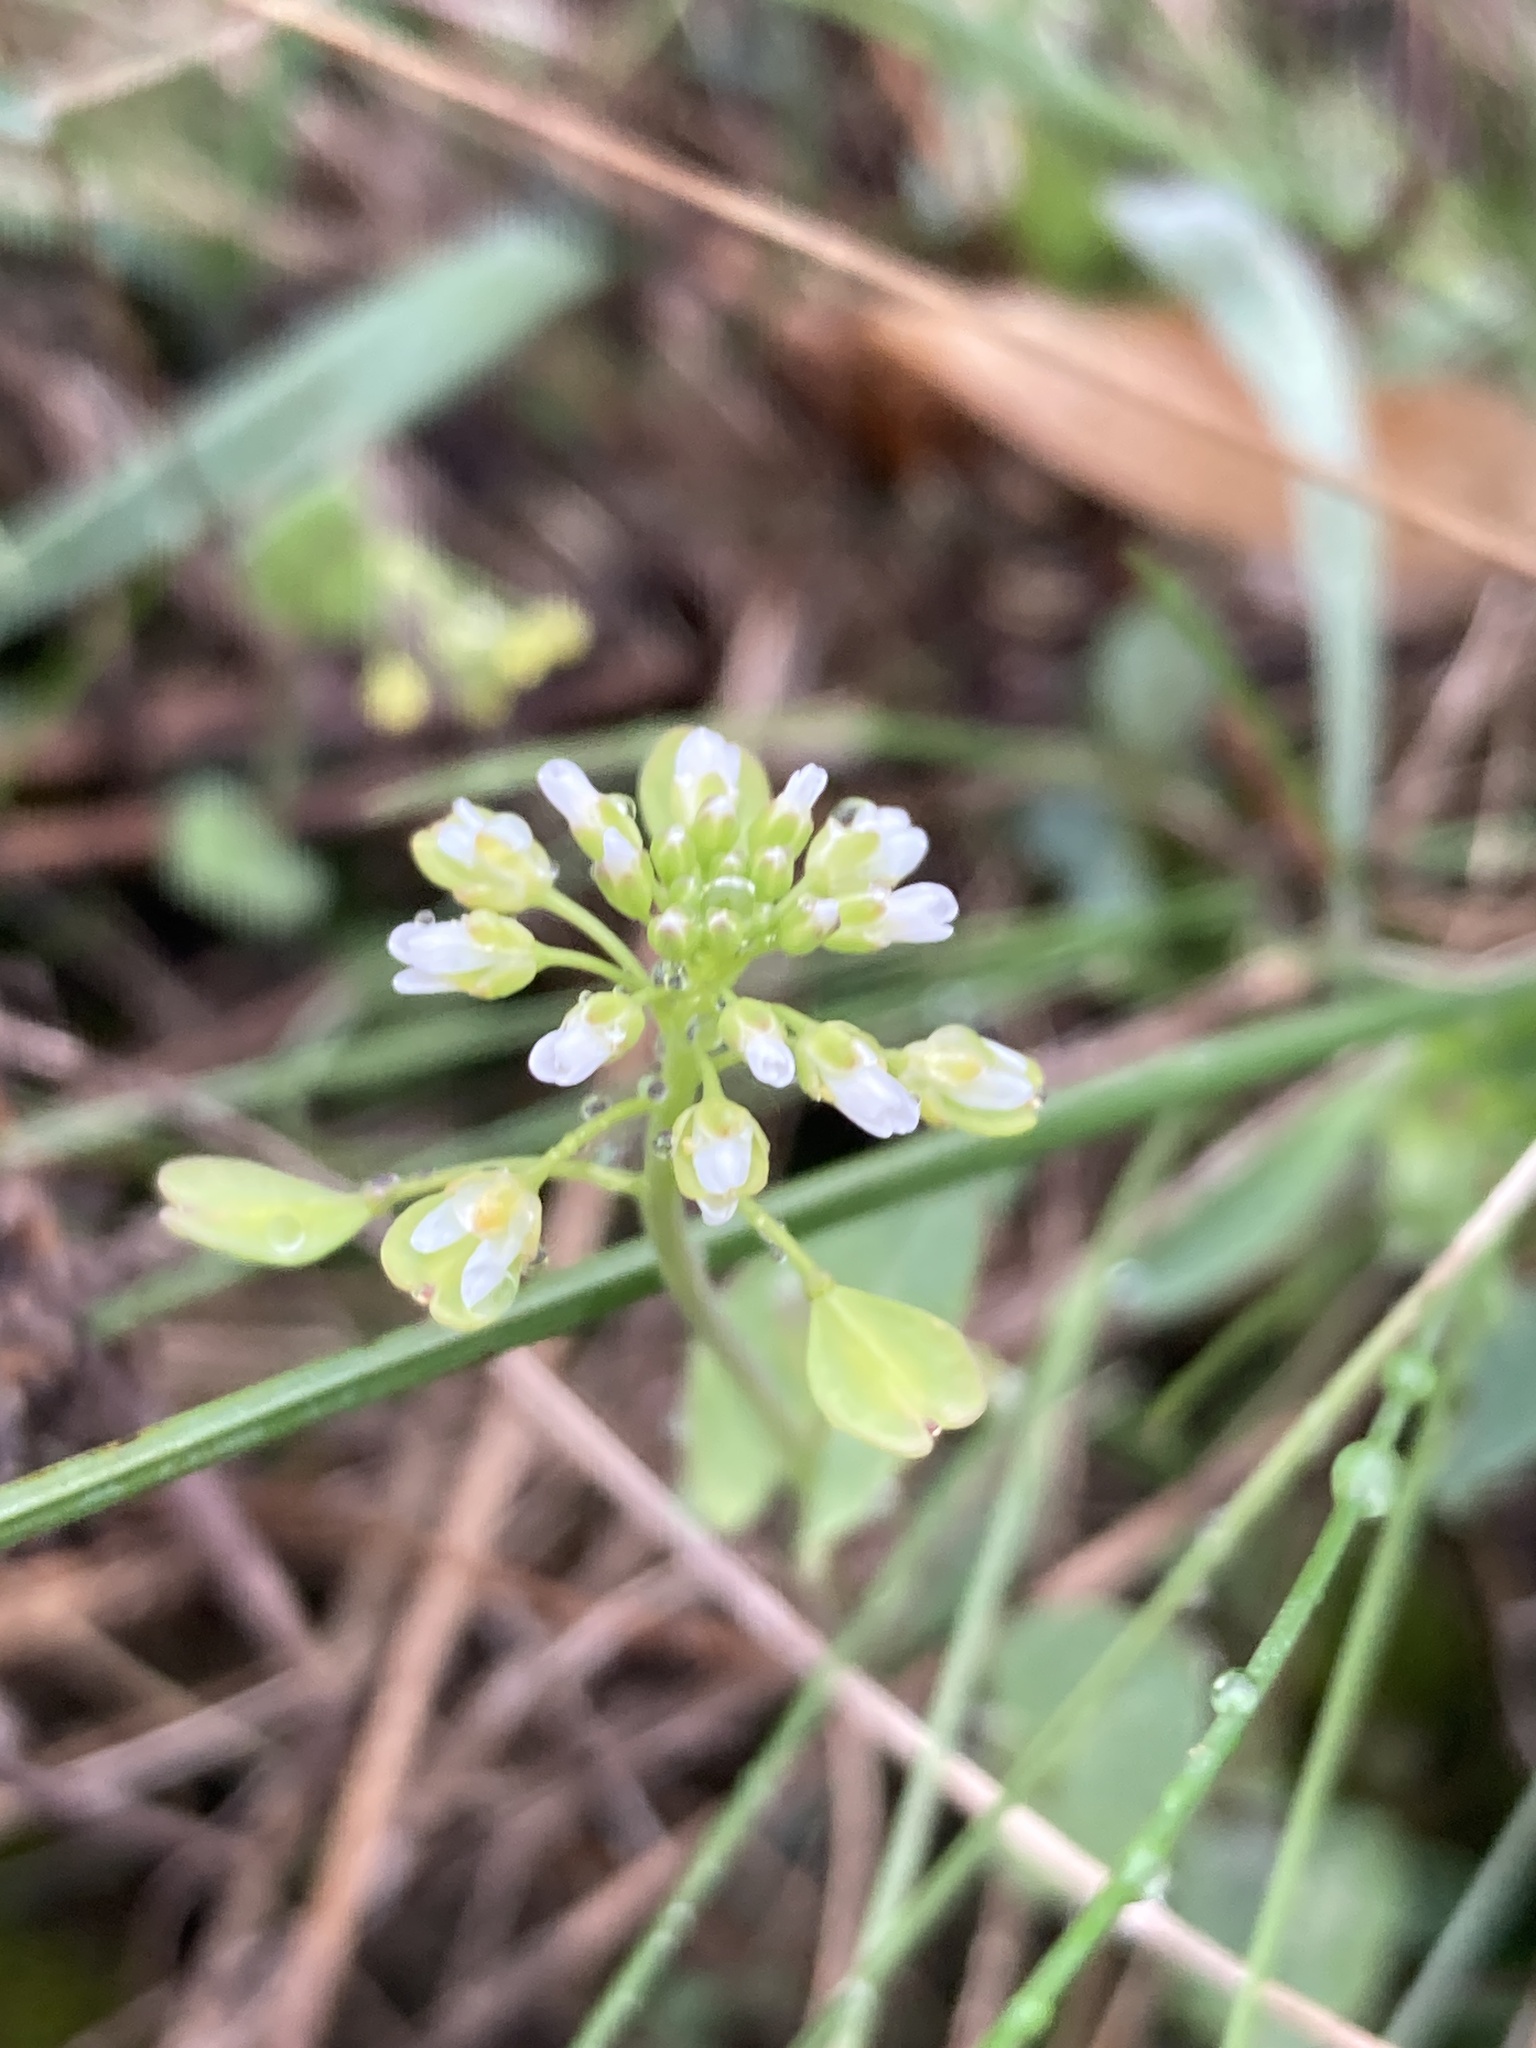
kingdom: Plantae
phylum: Tracheophyta
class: Magnoliopsida
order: Brassicales
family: Brassicaceae
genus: Noccaea
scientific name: Noccaea perfoliata
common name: Perfoliate pennycress
